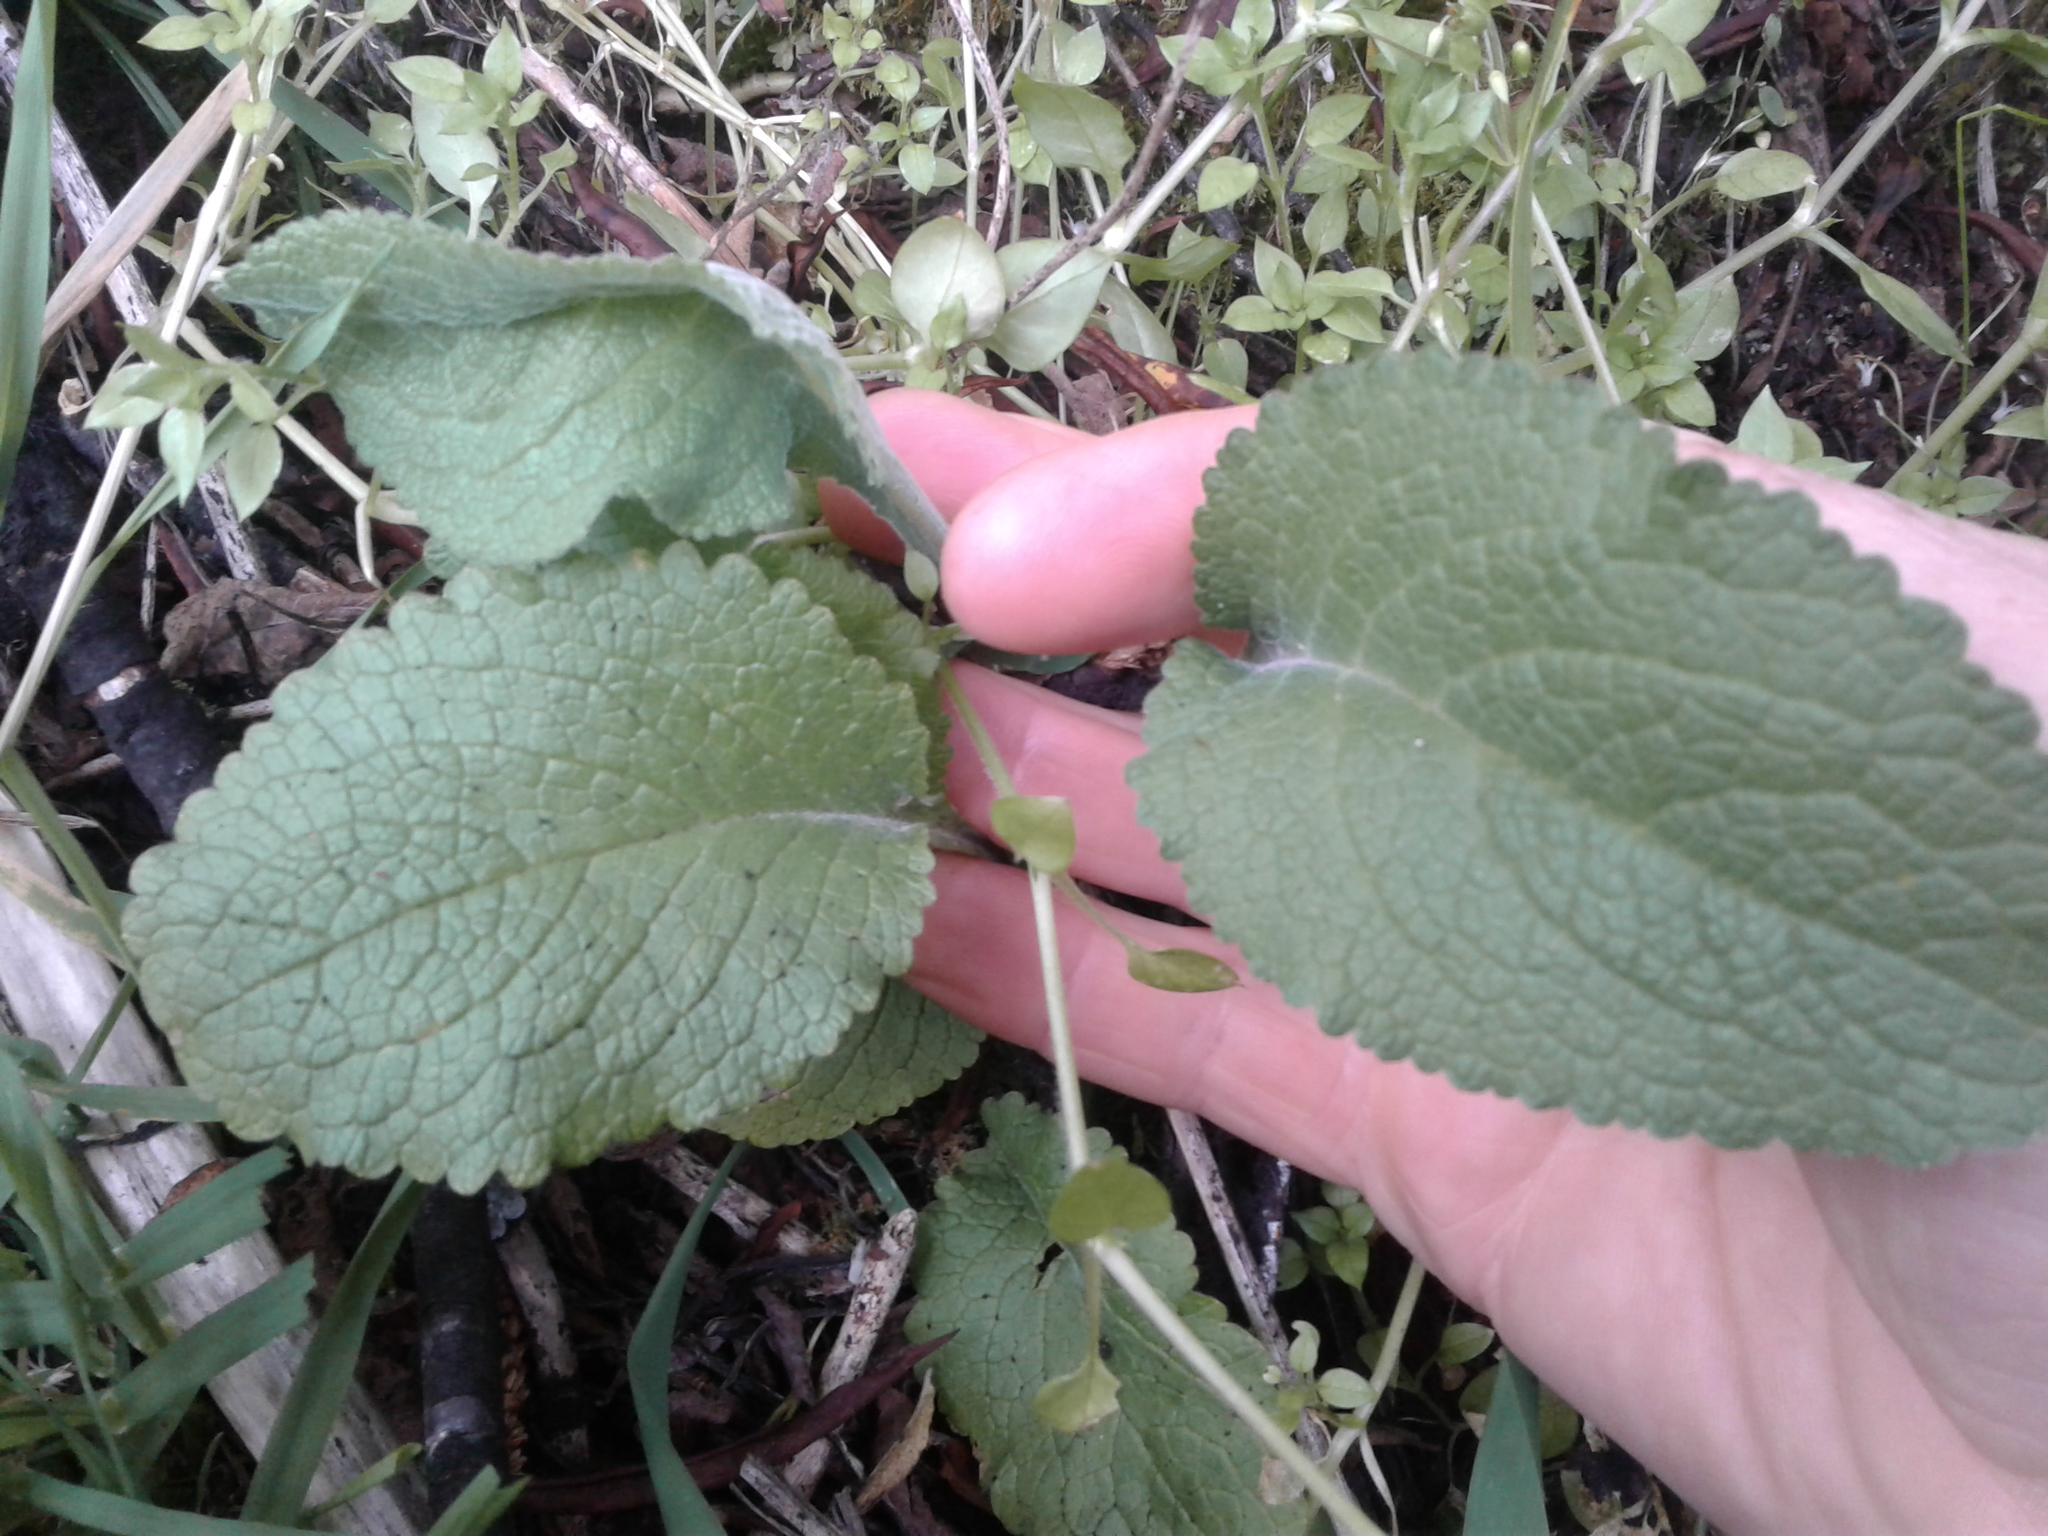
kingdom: Plantae
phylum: Tracheophyta
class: Magnoliopsida
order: Lamiales
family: Plantaginaceae
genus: Digitalis
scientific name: Digitalis purpurea
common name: Foxglove
